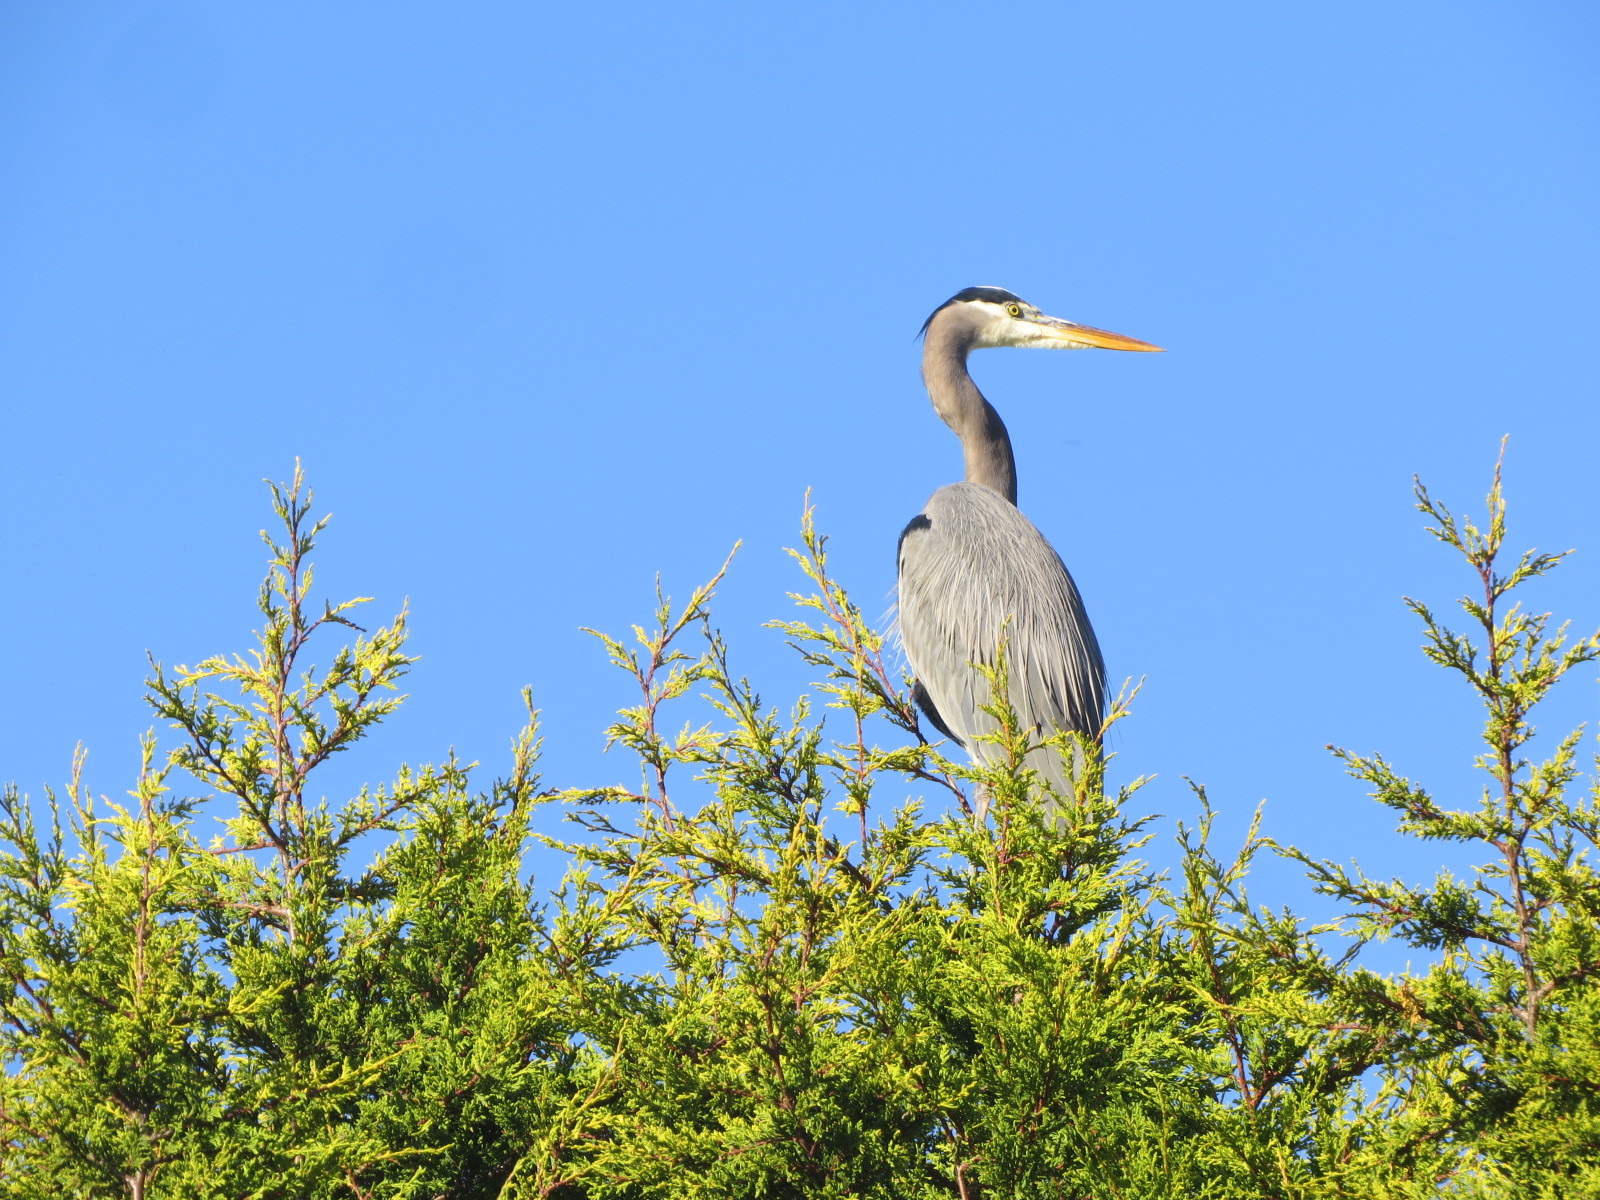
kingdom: Animalia
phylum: Chordata
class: Aves
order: Pelecaniformes
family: Ardeidae
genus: Ardea
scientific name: Ardea herodias
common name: Great blue heron
